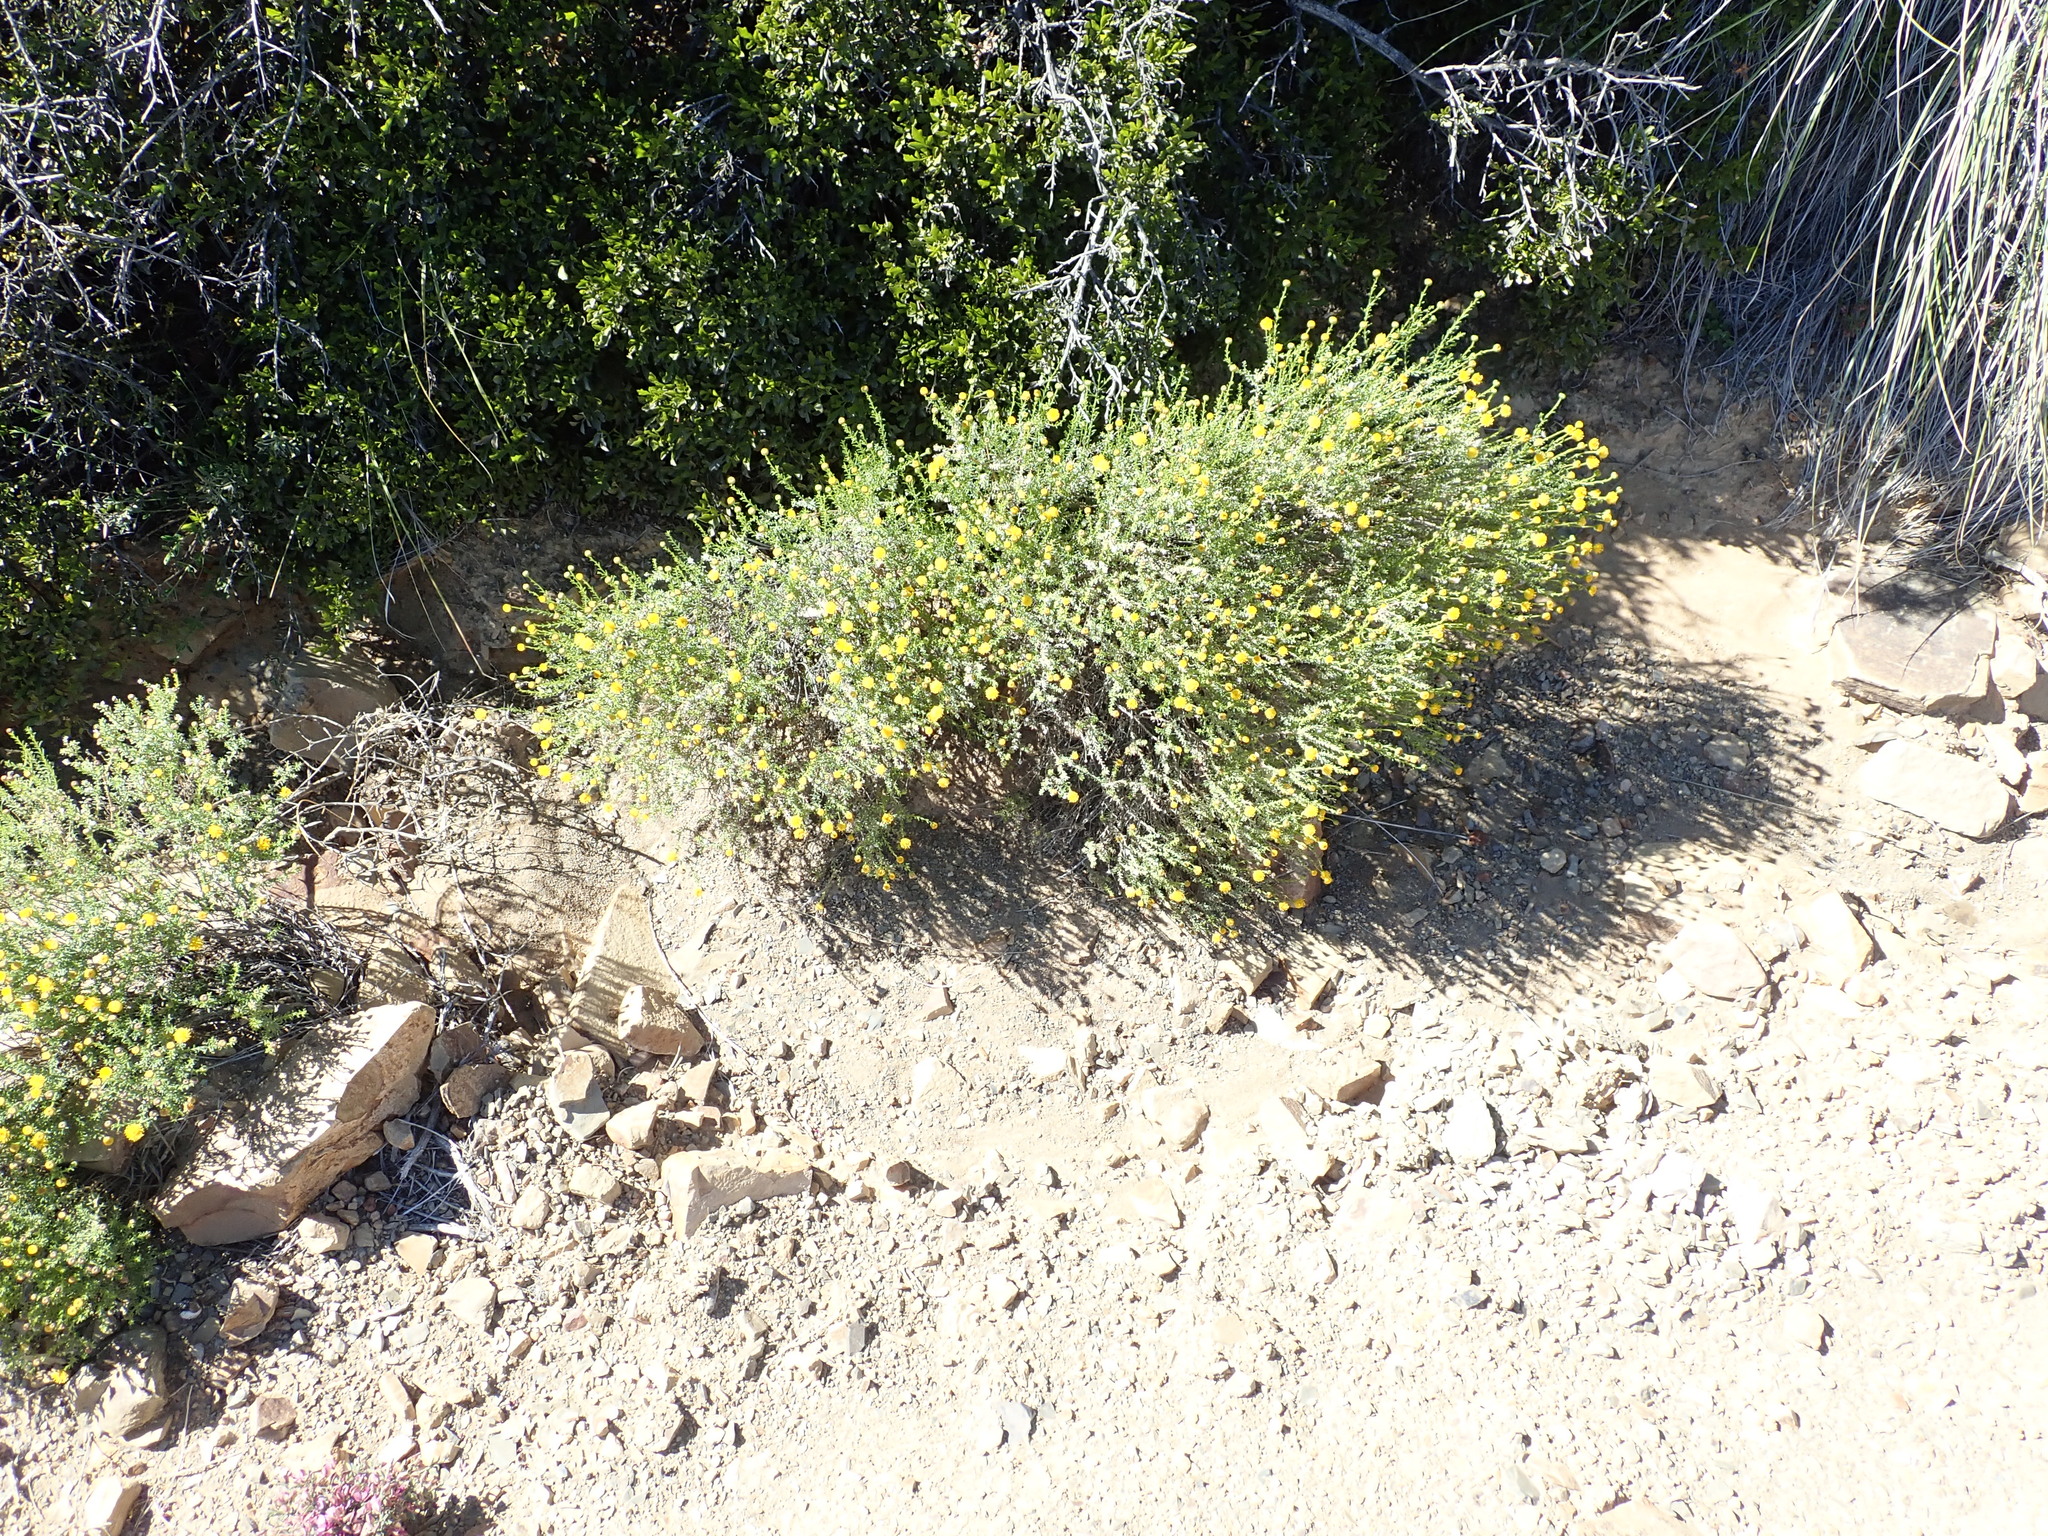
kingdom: Plantae
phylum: Tracheophyta
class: Magnoliopsida
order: Asterales
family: Asteraceae
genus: Chrysocoma
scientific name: Chrysocoma ciliata
